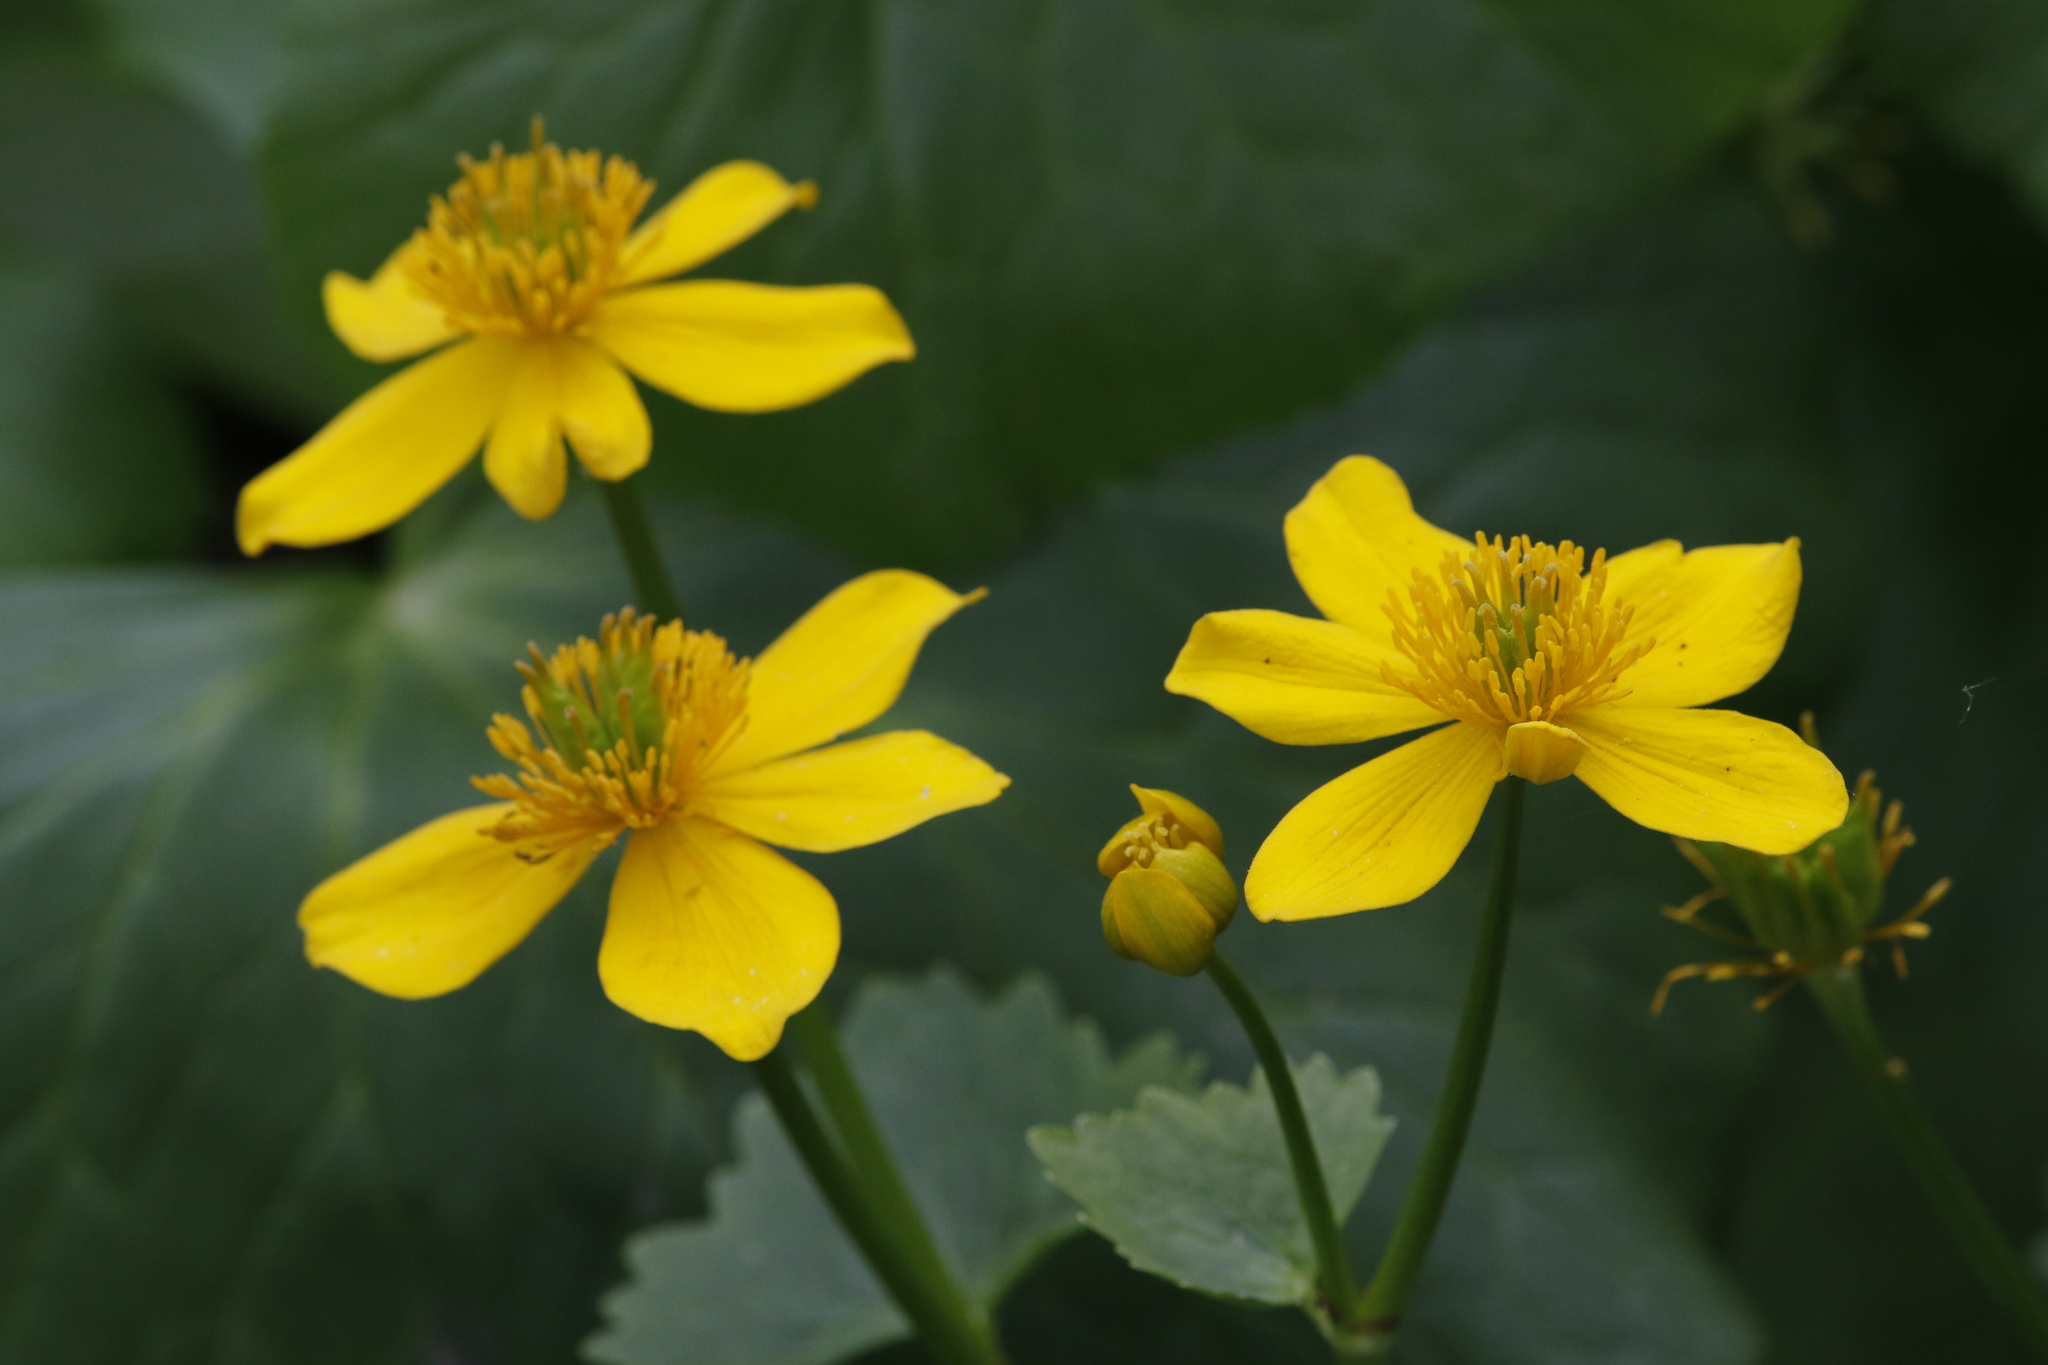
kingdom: Plantae
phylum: Tracheophyta
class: Magnoliopsida
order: Ranunculales
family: Ranunculaceae
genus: Caltha
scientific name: Caltha palustris
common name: Marsh marigold
